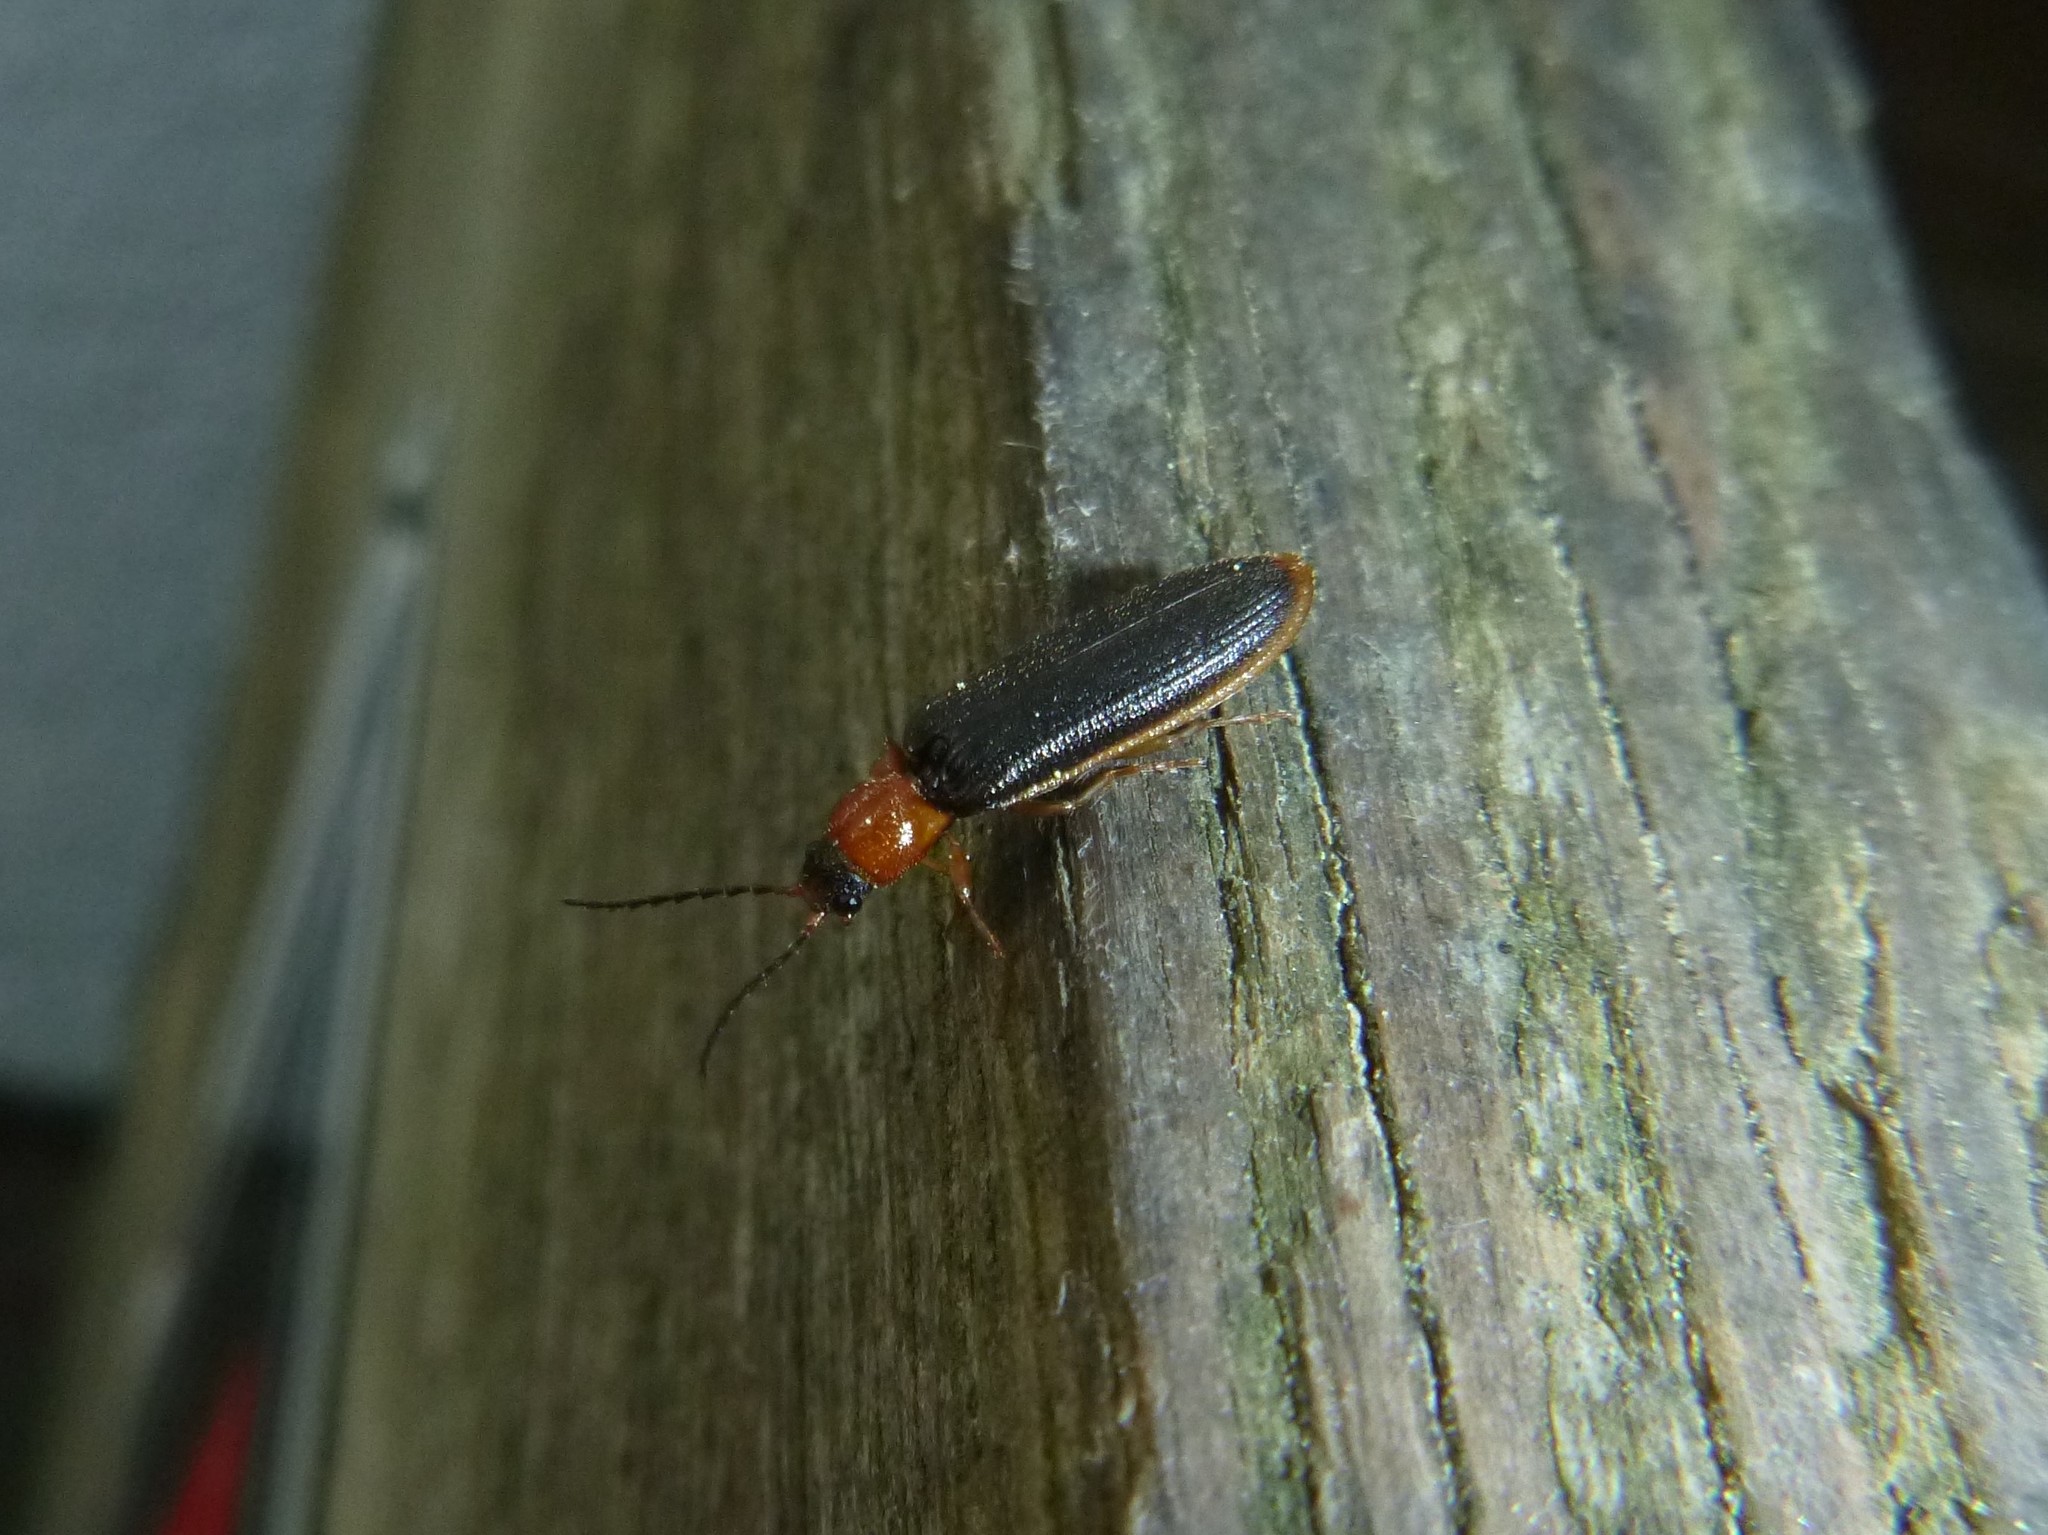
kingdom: Animalia
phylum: Arthropoda
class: Insecta
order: Coleoptera
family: Elateridae
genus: Denticollis
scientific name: Denticollis linearis
